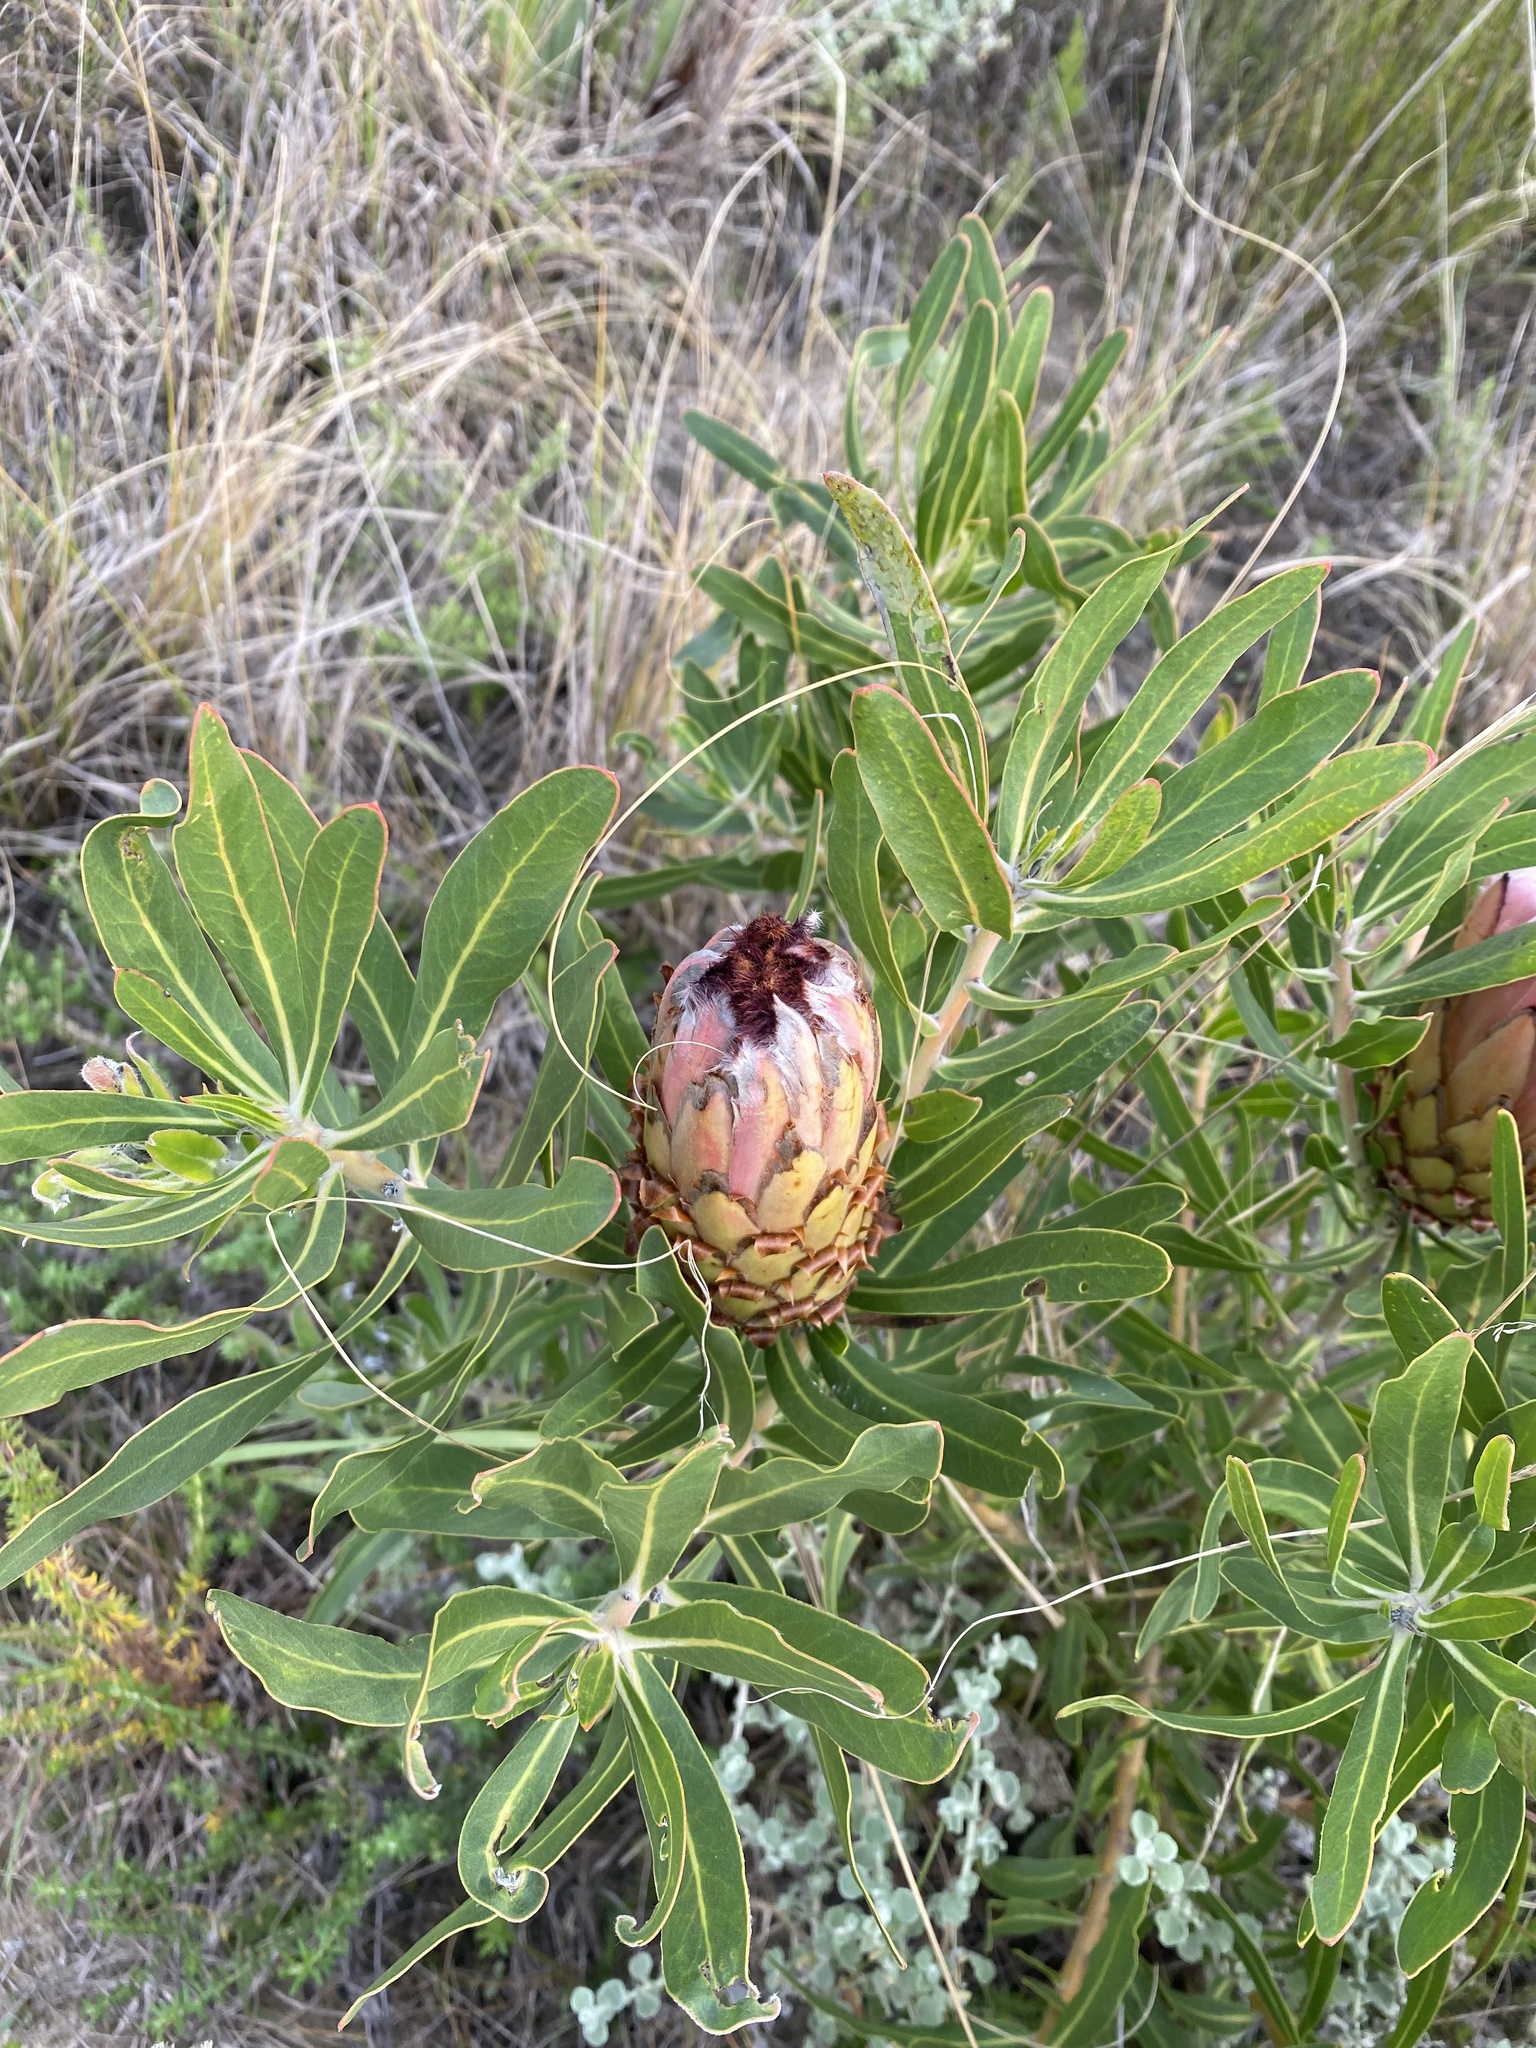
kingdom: Plantae
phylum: Tracheophyta
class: Magnoliopsida
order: Proteales
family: Proteaceae
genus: Protea
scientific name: Protea neriifolia
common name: Blue sugarbush
